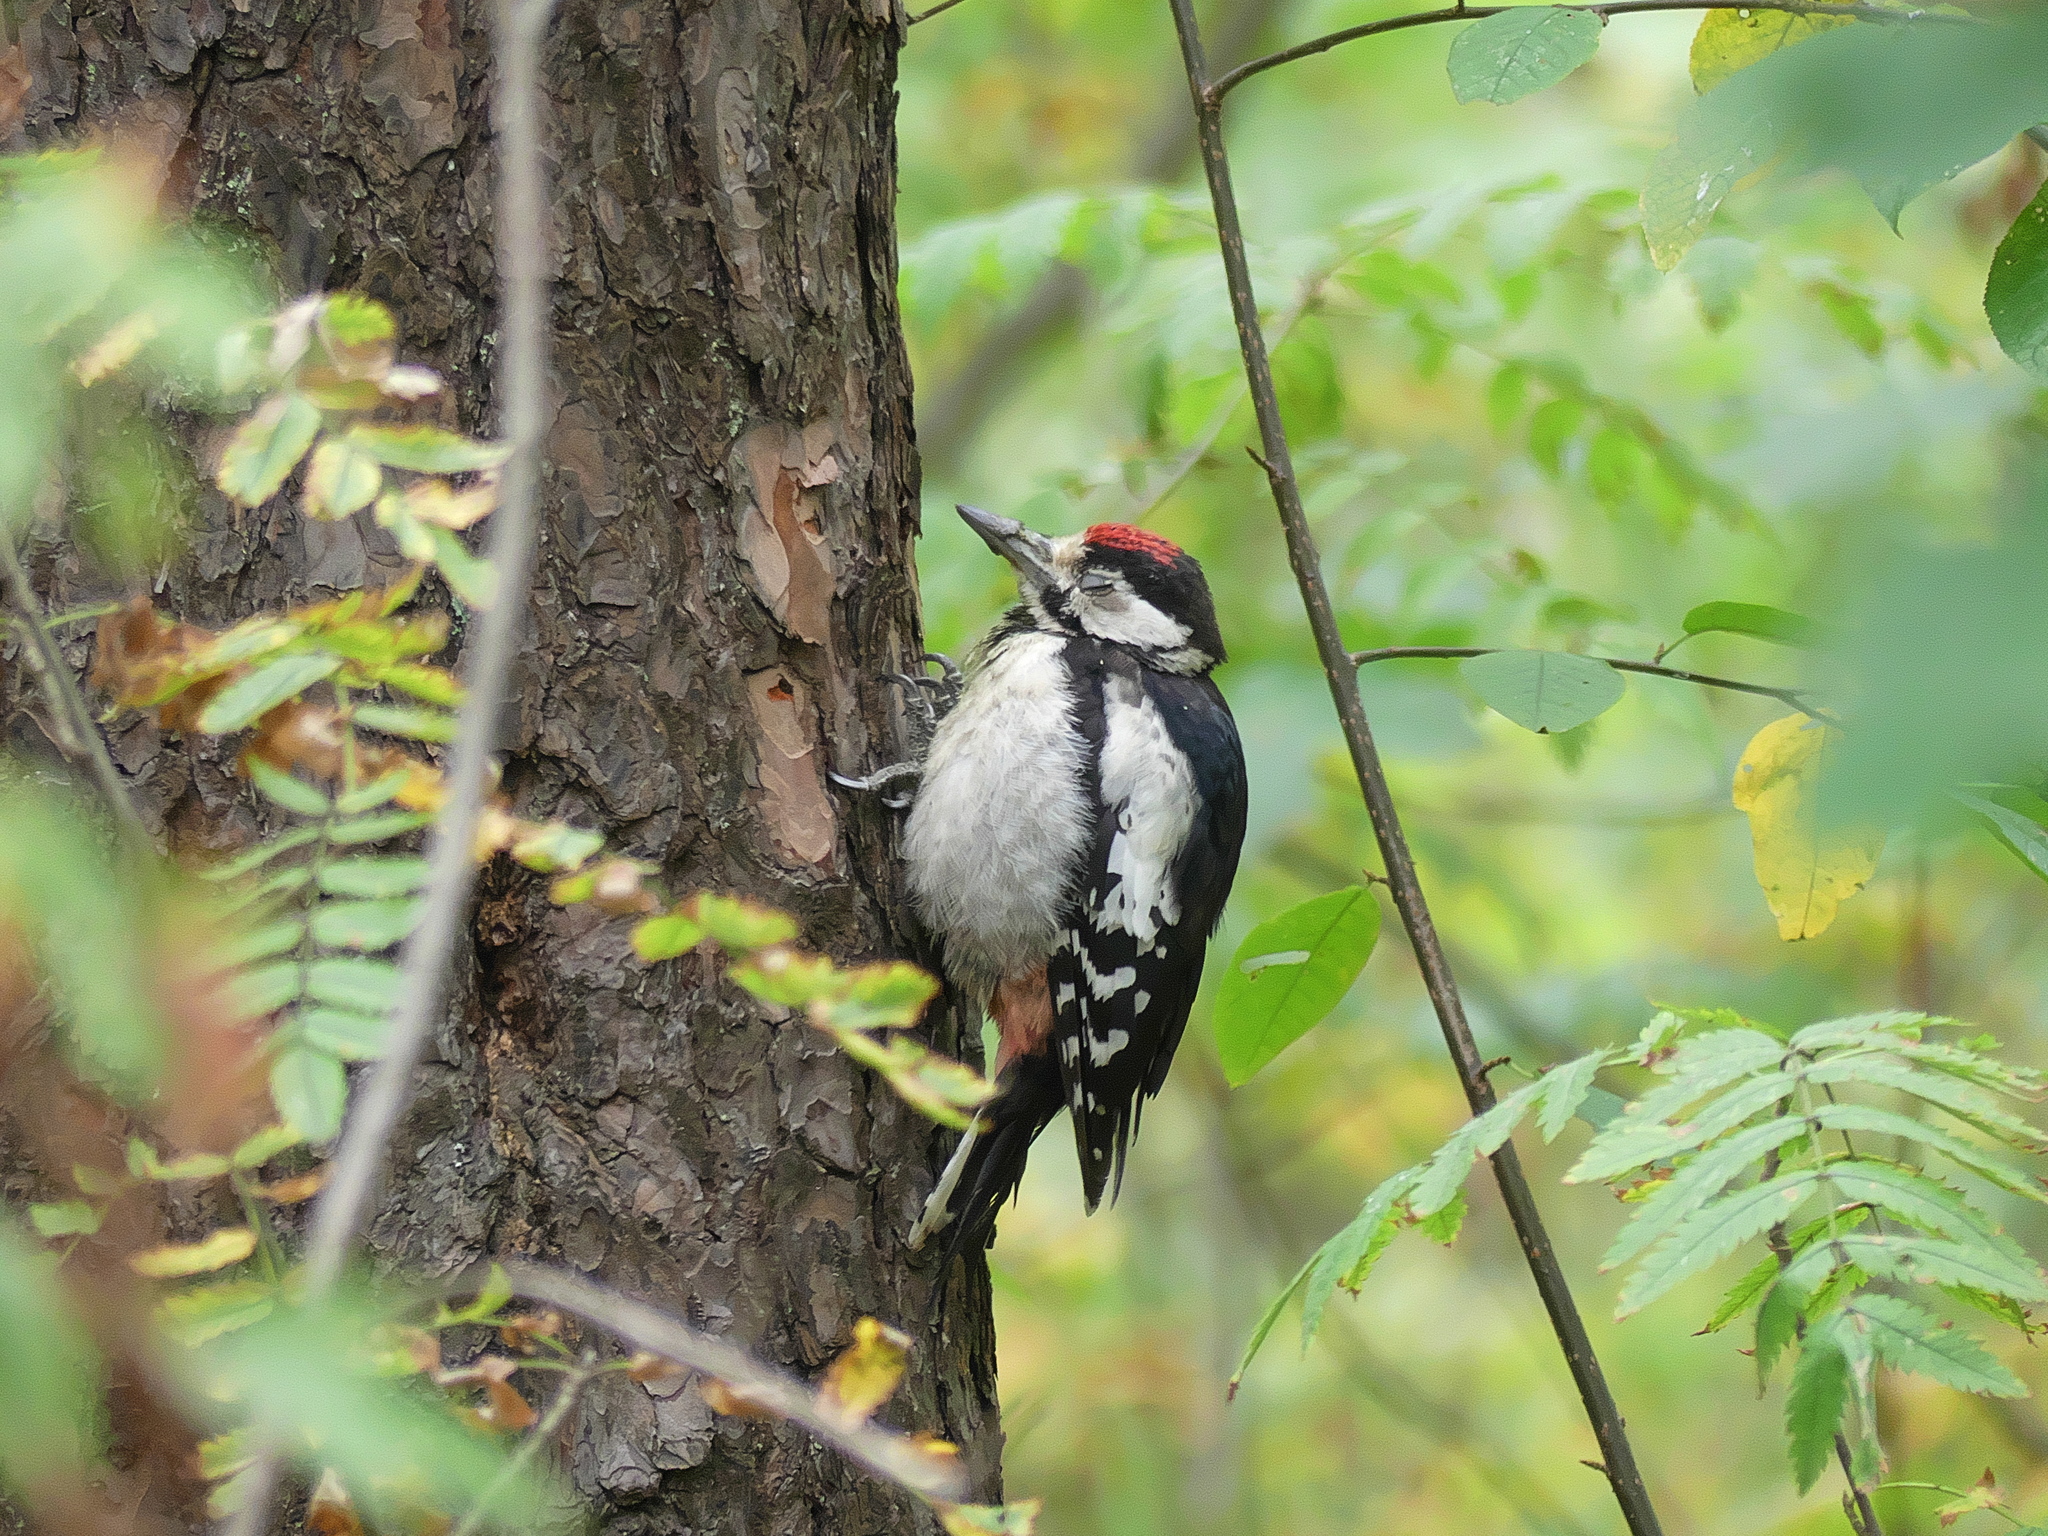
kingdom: Animalia
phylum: Chordata
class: Aves
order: Piciformes
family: Picidae
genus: Dendrocopos
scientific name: Dendrocopos major
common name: Great spotted woodpecker
